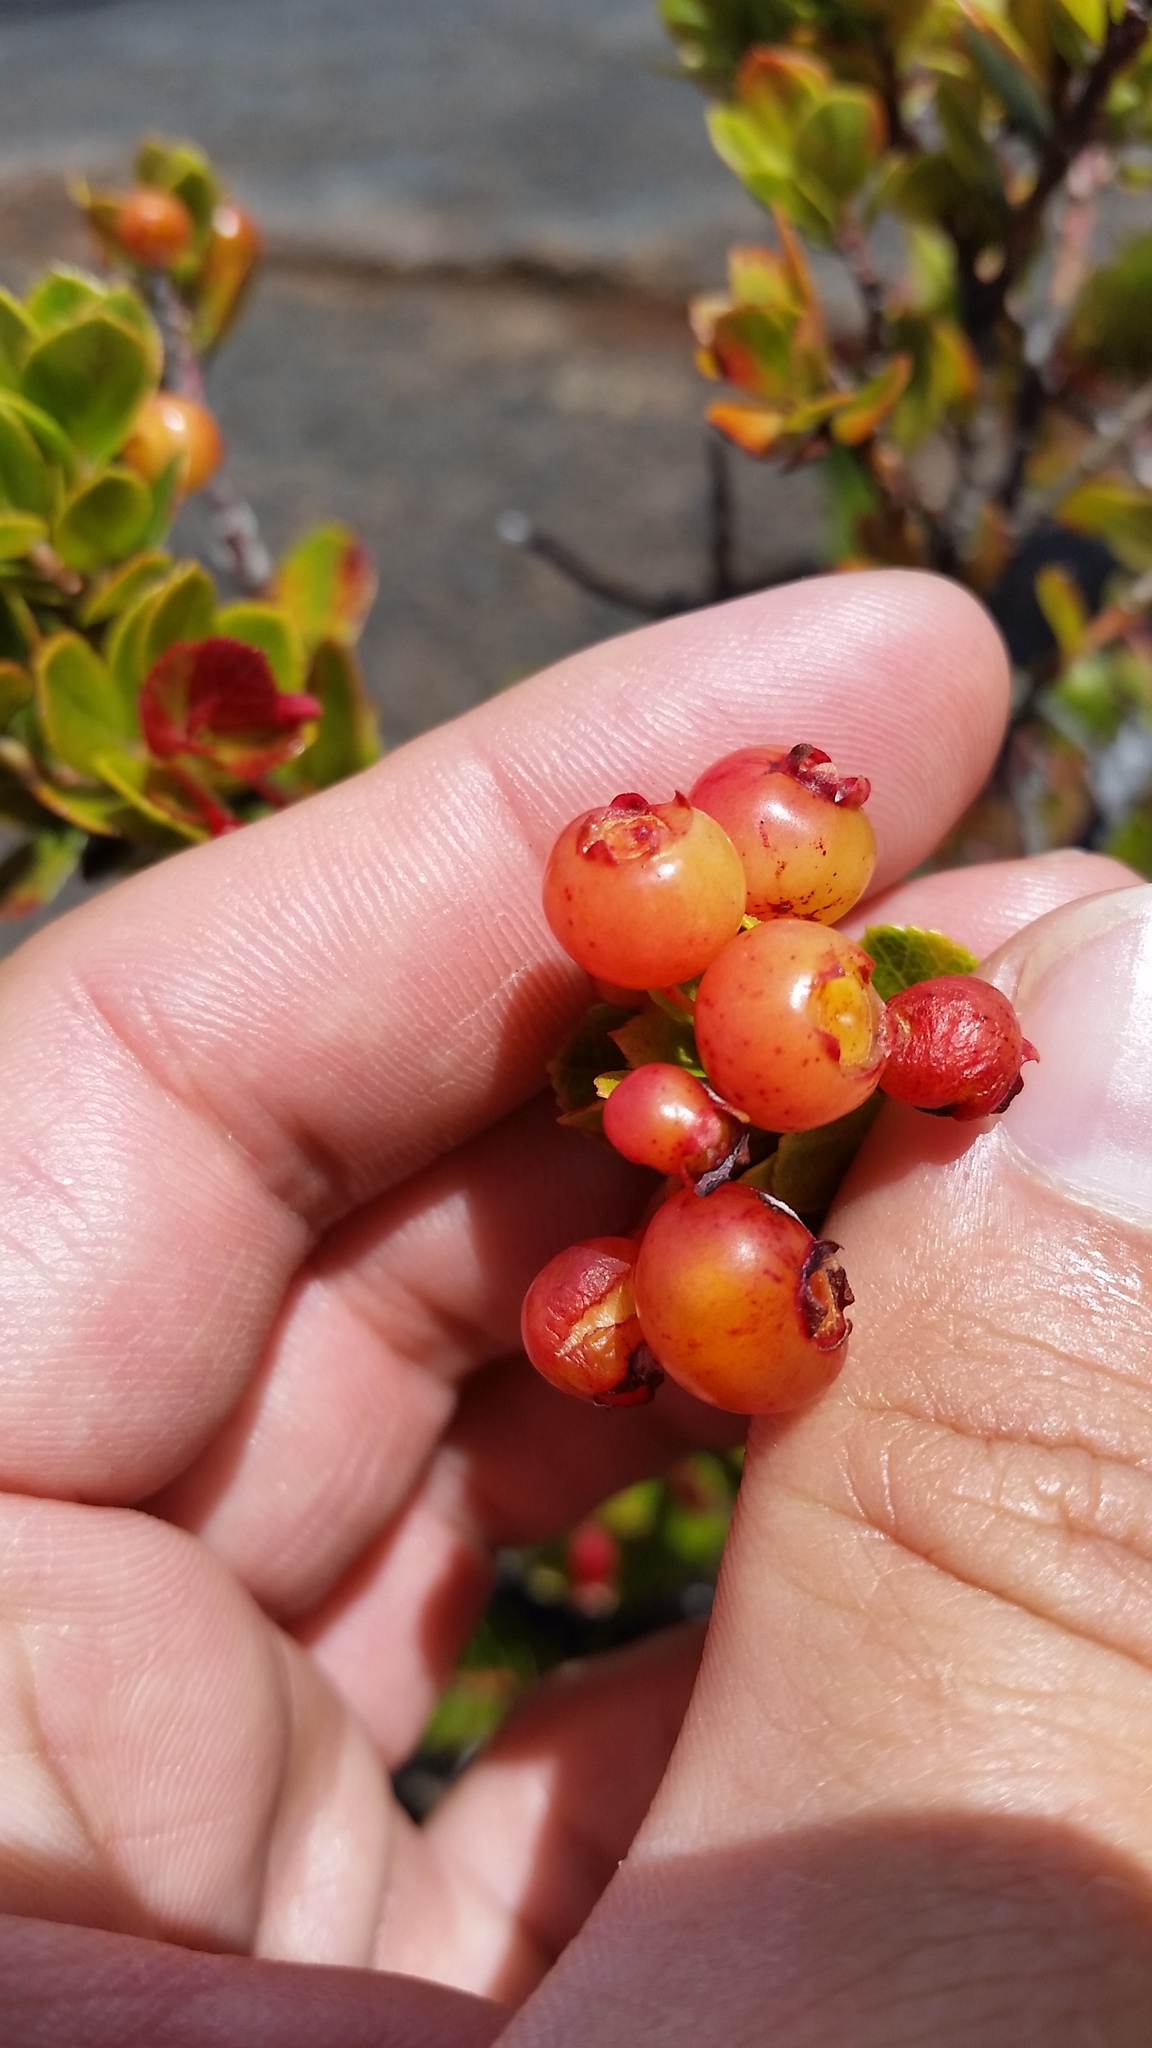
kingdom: Plantae
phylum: Tracheophyta
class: Magnoliopsida
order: Ericales
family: Ericaceae
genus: Vaccinium
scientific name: Vaccinium reticulatum
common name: Ohelo
